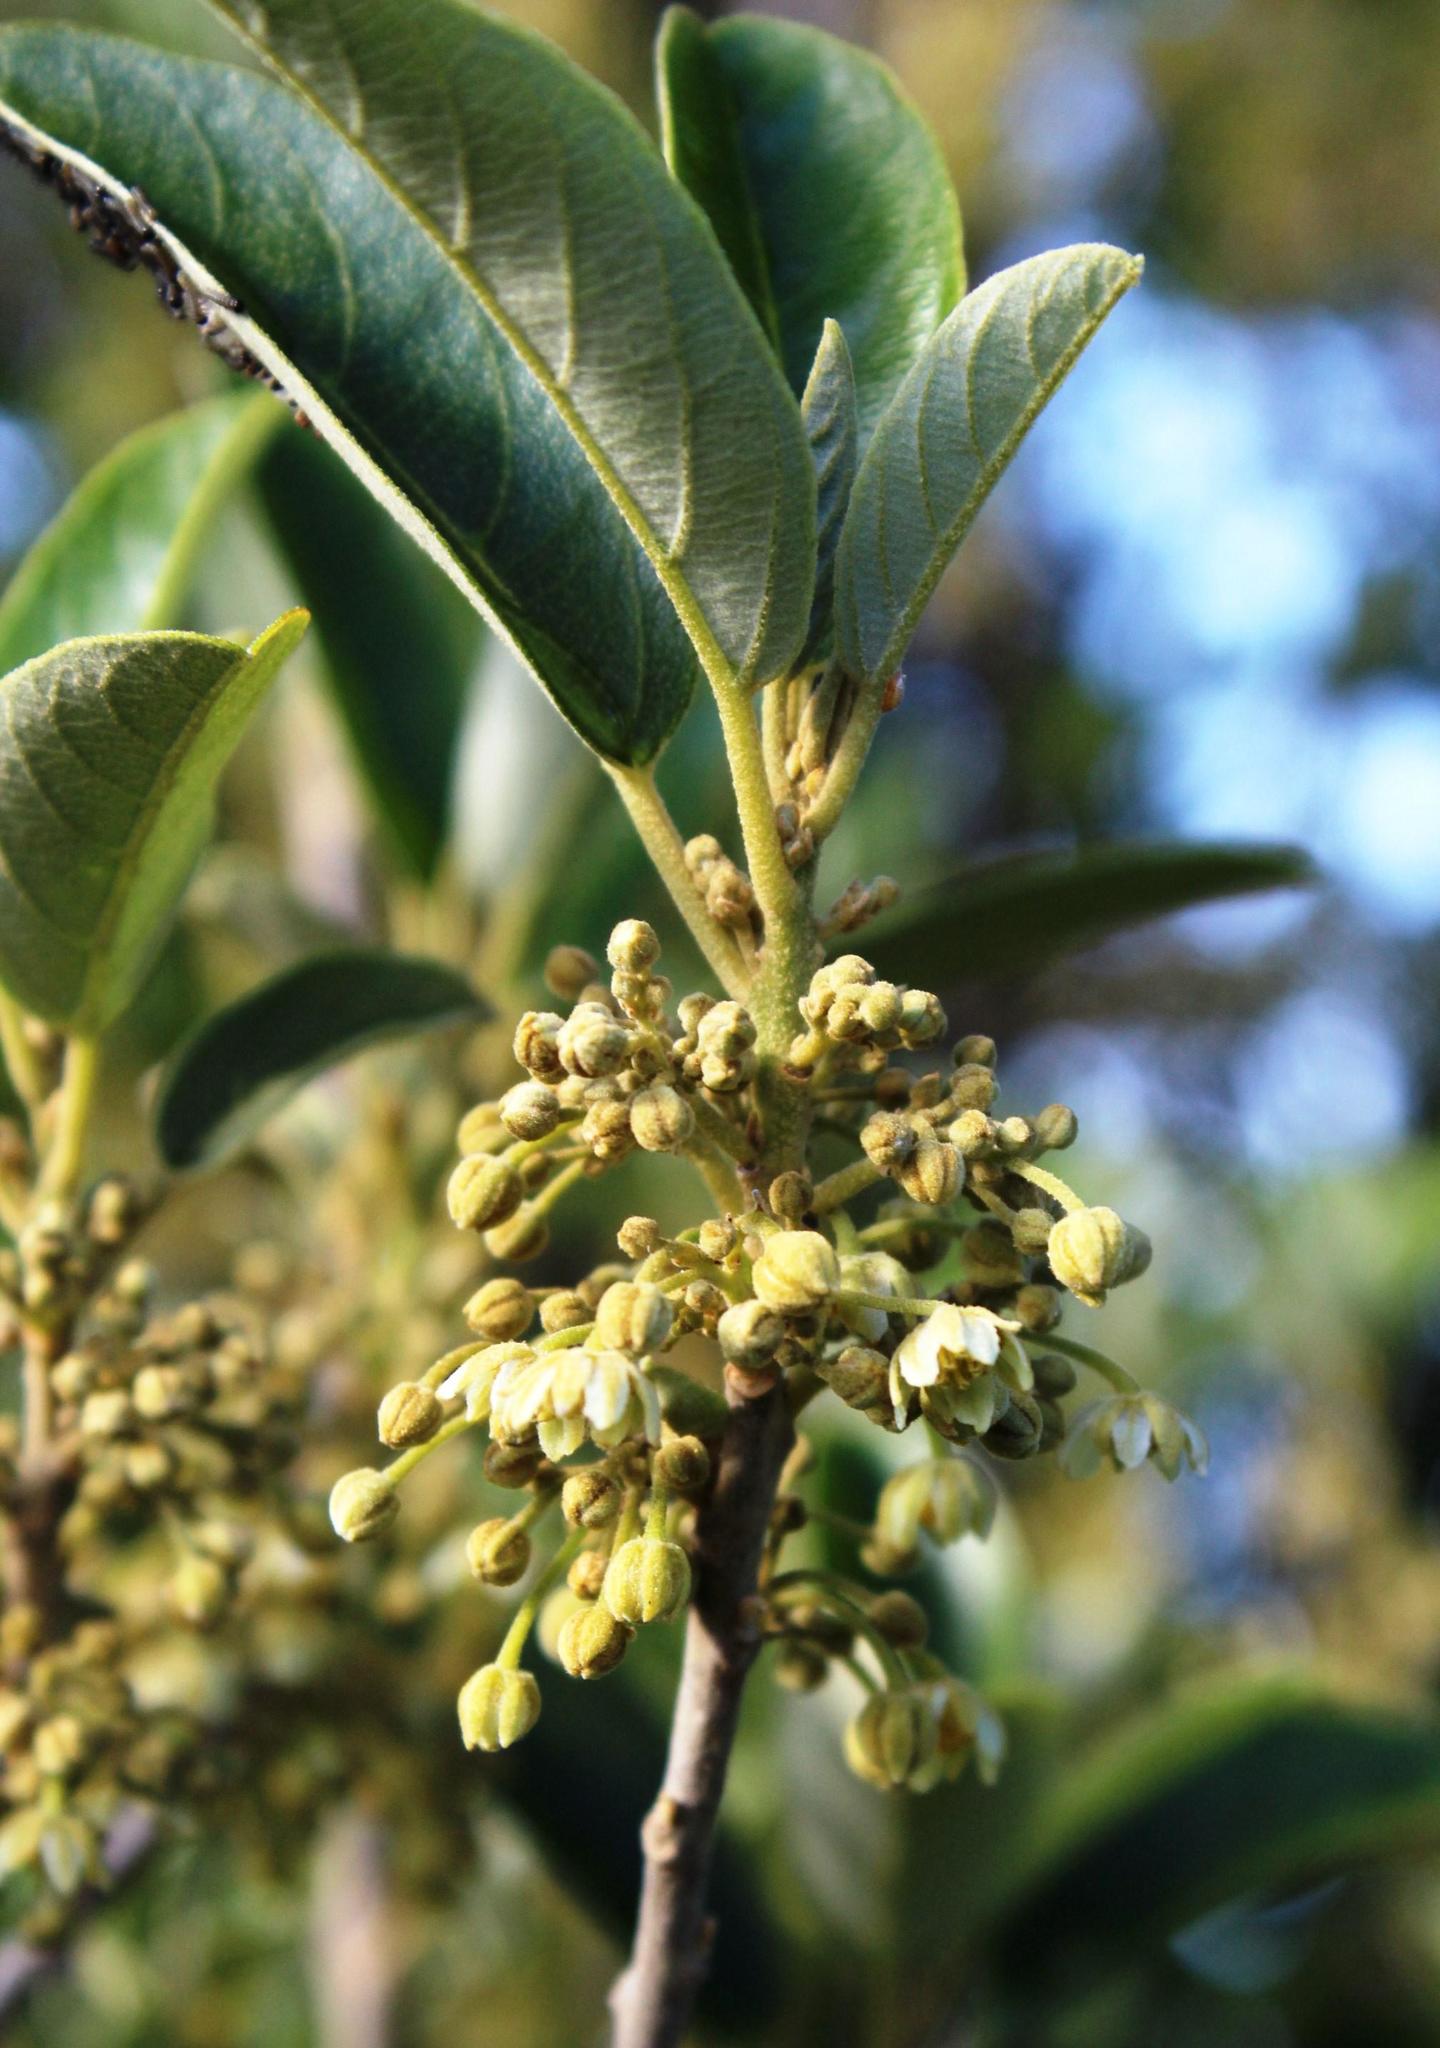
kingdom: Plantae
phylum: Tracheophyta
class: Magnoliopsida
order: Malpighiales
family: Achariaceae
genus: Kiggelaria
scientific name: Kiggelaria africana
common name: Wild peach
